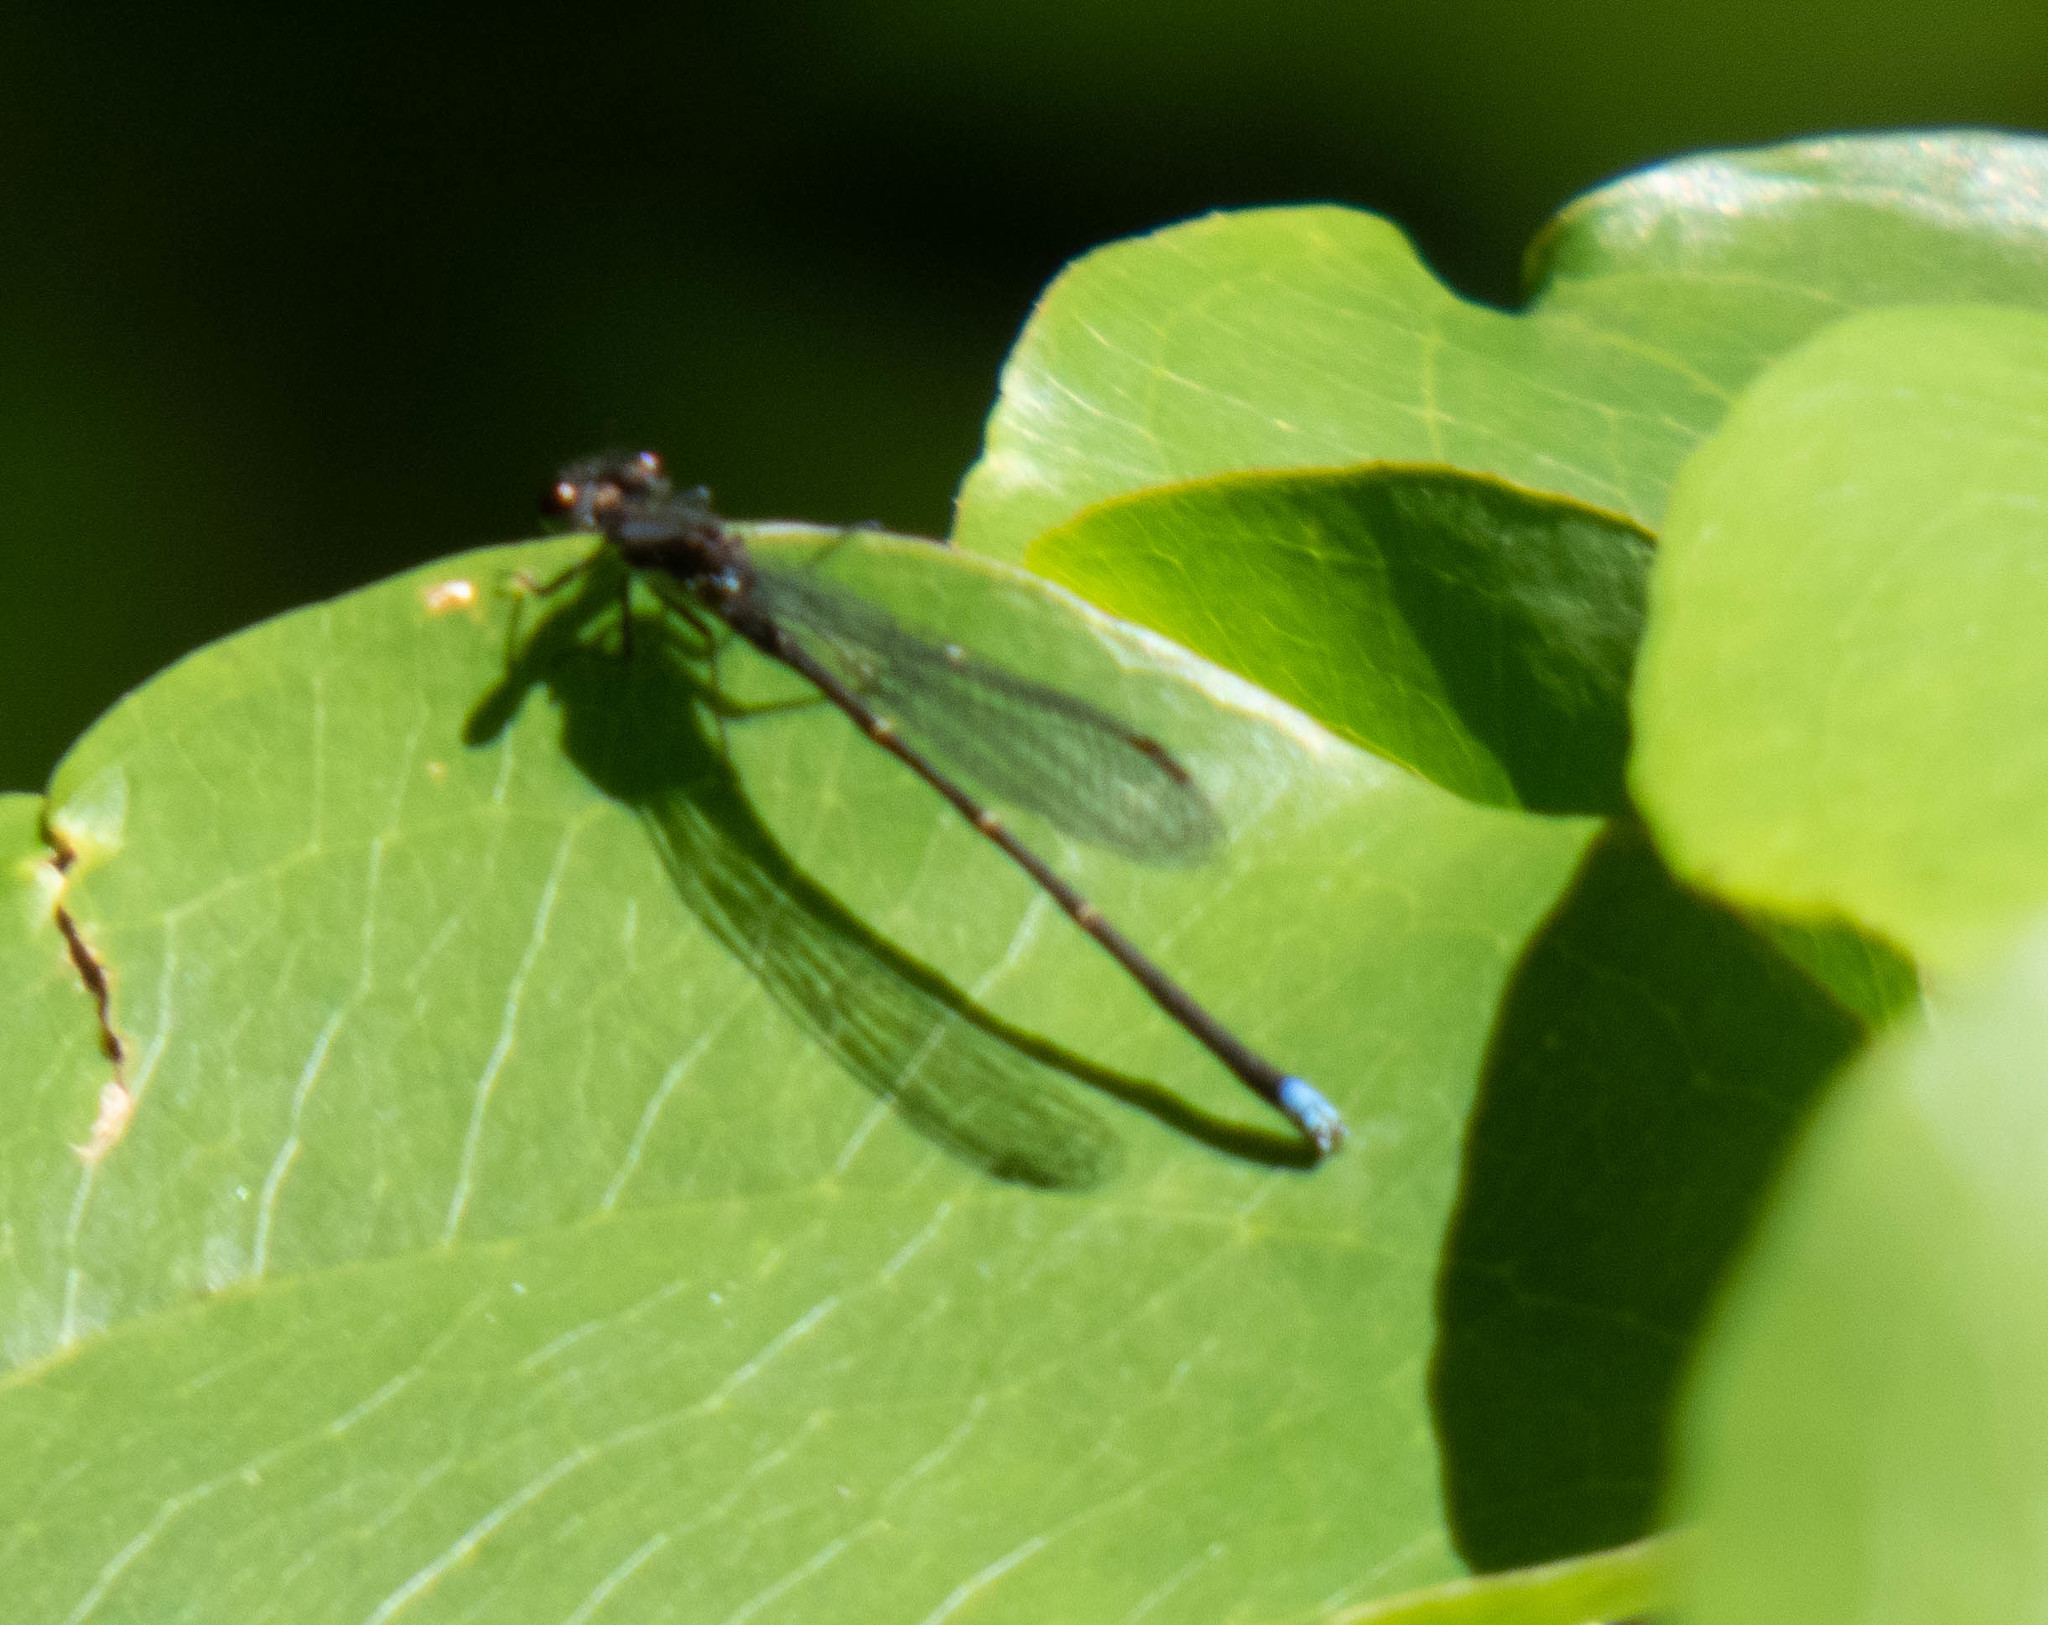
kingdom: Animalia
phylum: Arthropoda
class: Insecta
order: Odonata
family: Coenagrionidae
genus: Argia
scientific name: Argia tibialis
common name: Blue-tipped dancer
